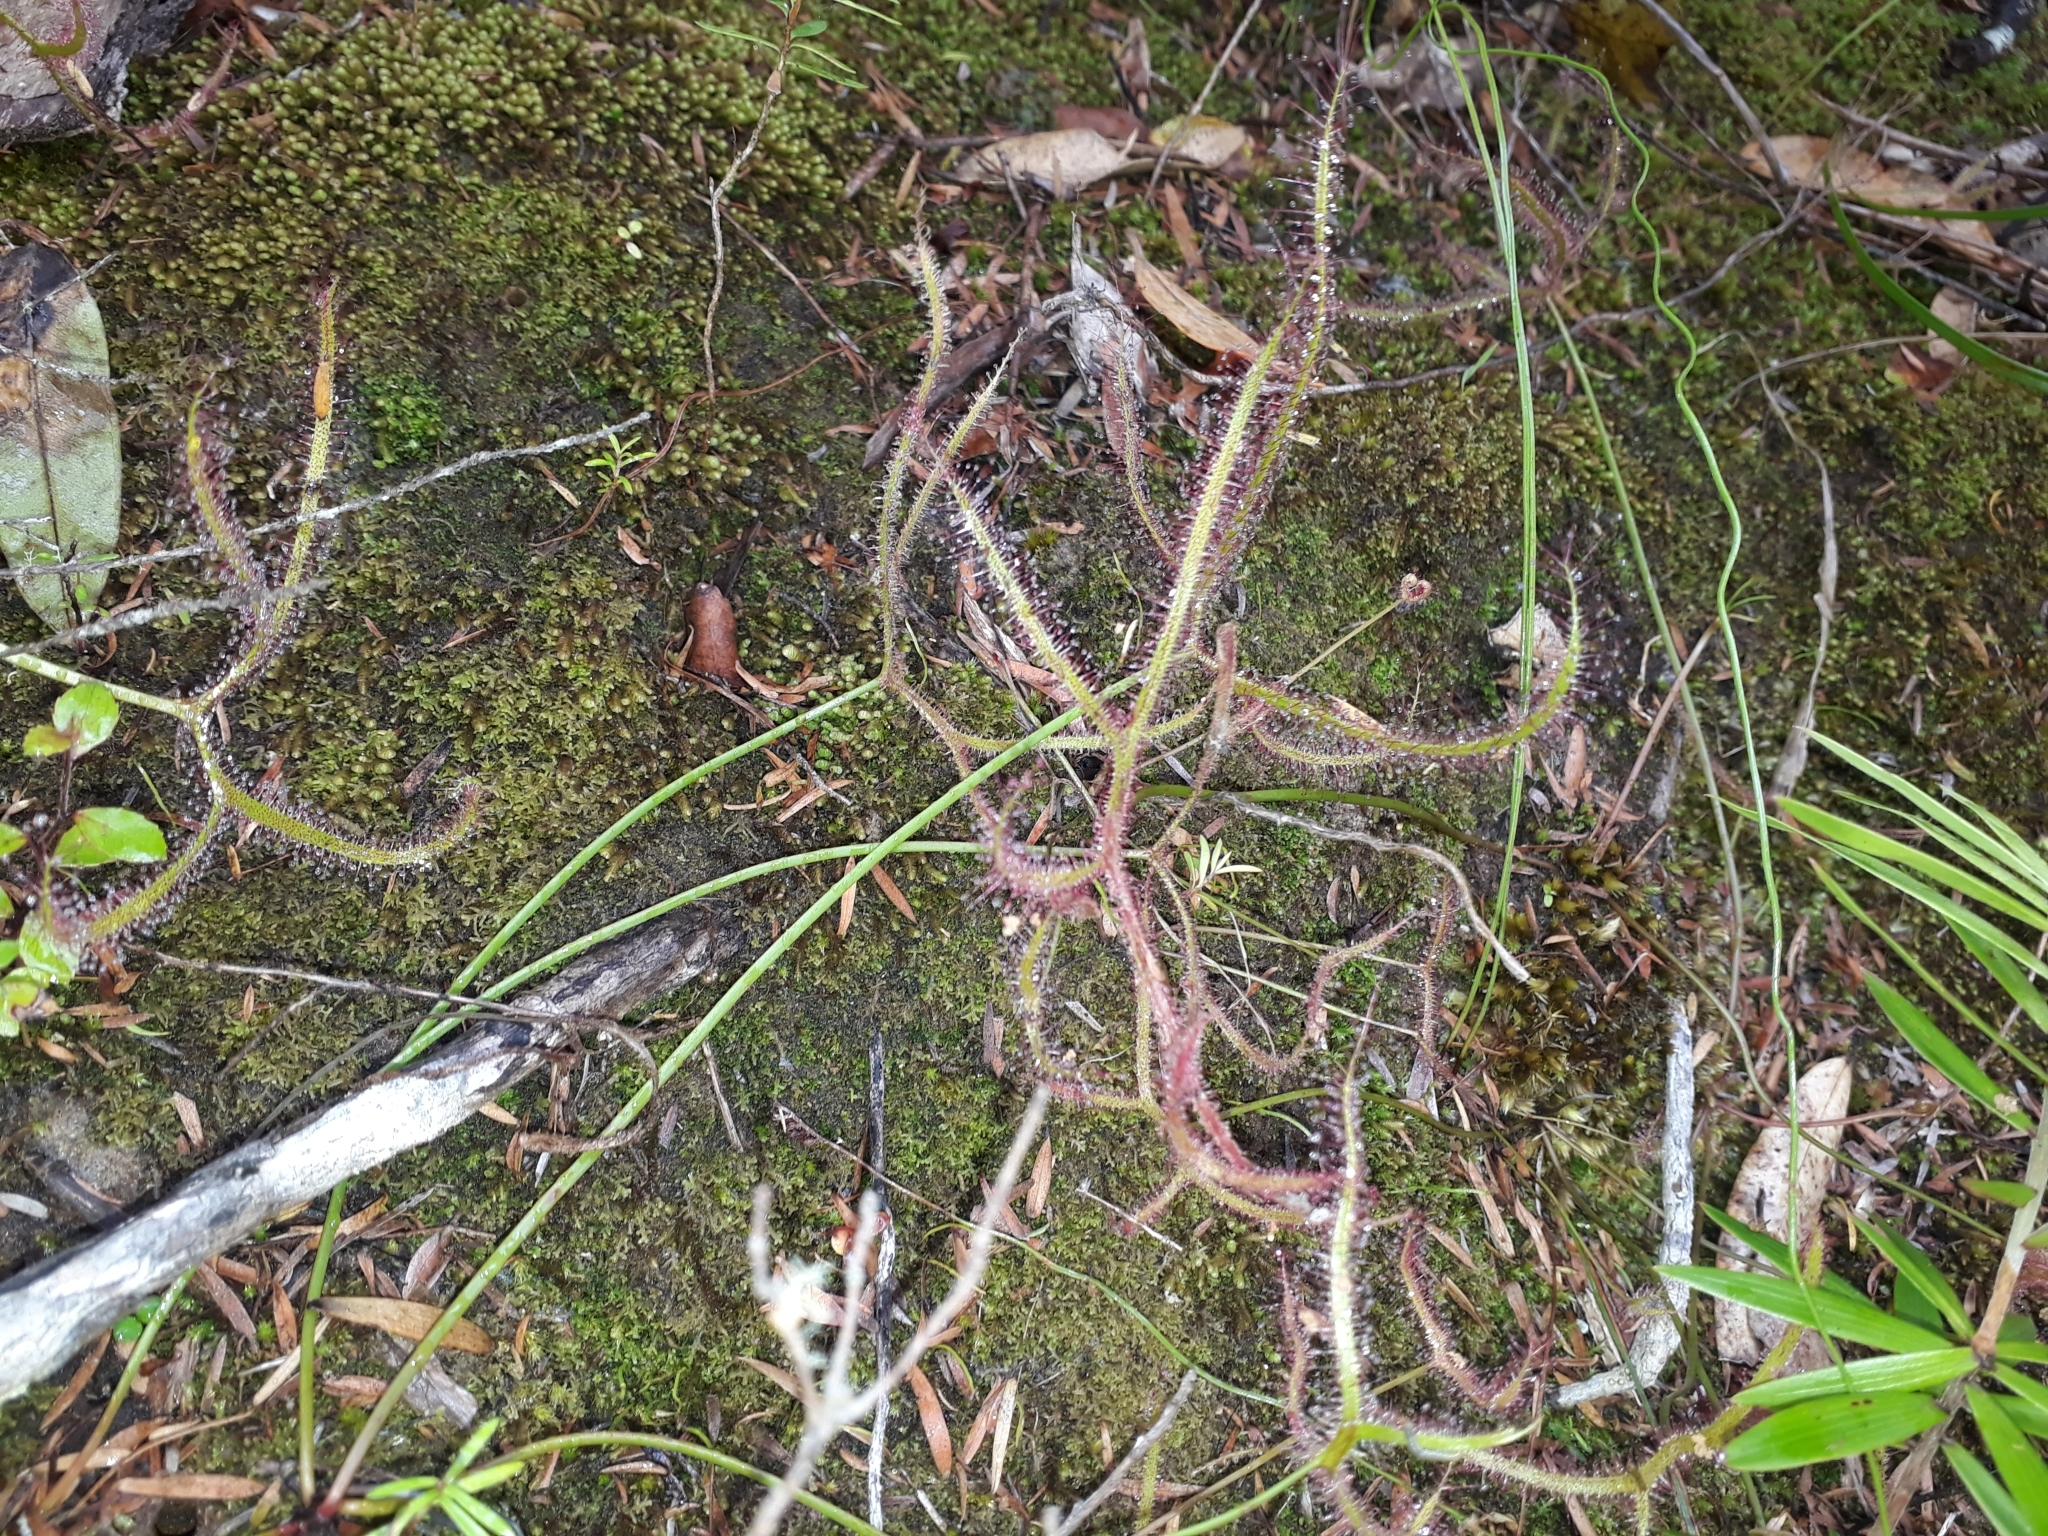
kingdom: Plantae
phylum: Tracheophyta
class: Magnoliopsida
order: Caryophyllales
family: Droseraceae
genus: Drosera
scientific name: Drosera binata
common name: Forked sundew
